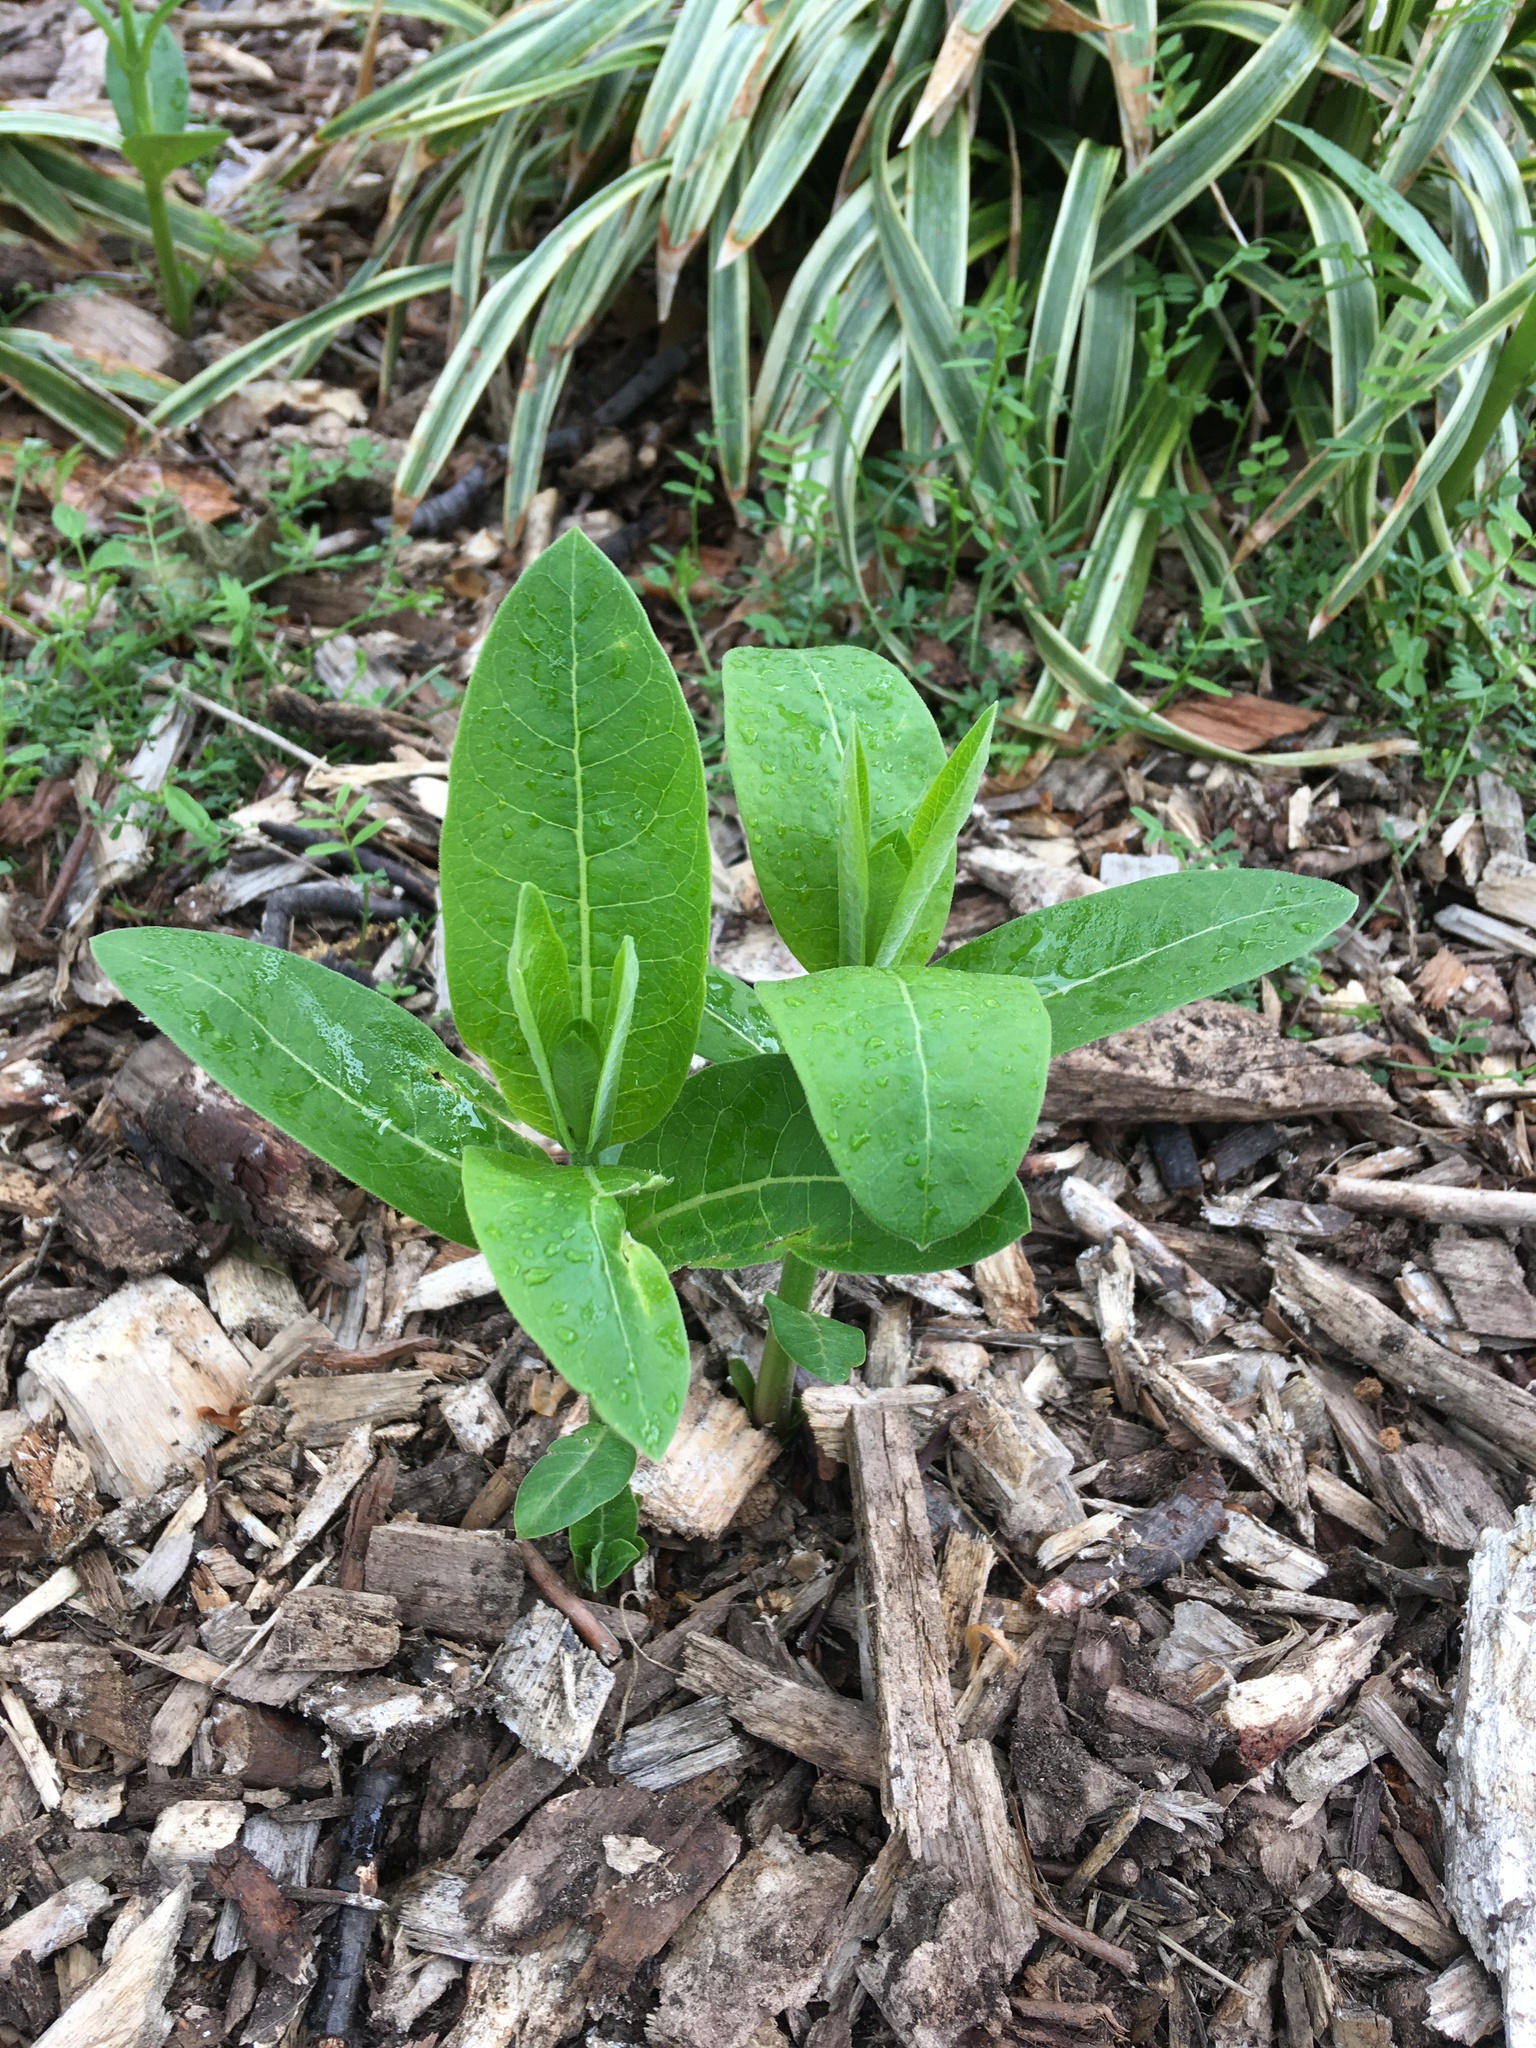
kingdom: Plantae
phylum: Tracheophyta
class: Magnoliopsida
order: Gentianales
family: Apocynaceae
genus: Asclepias
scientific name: Asclepias syriaca
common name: Common milkweed
